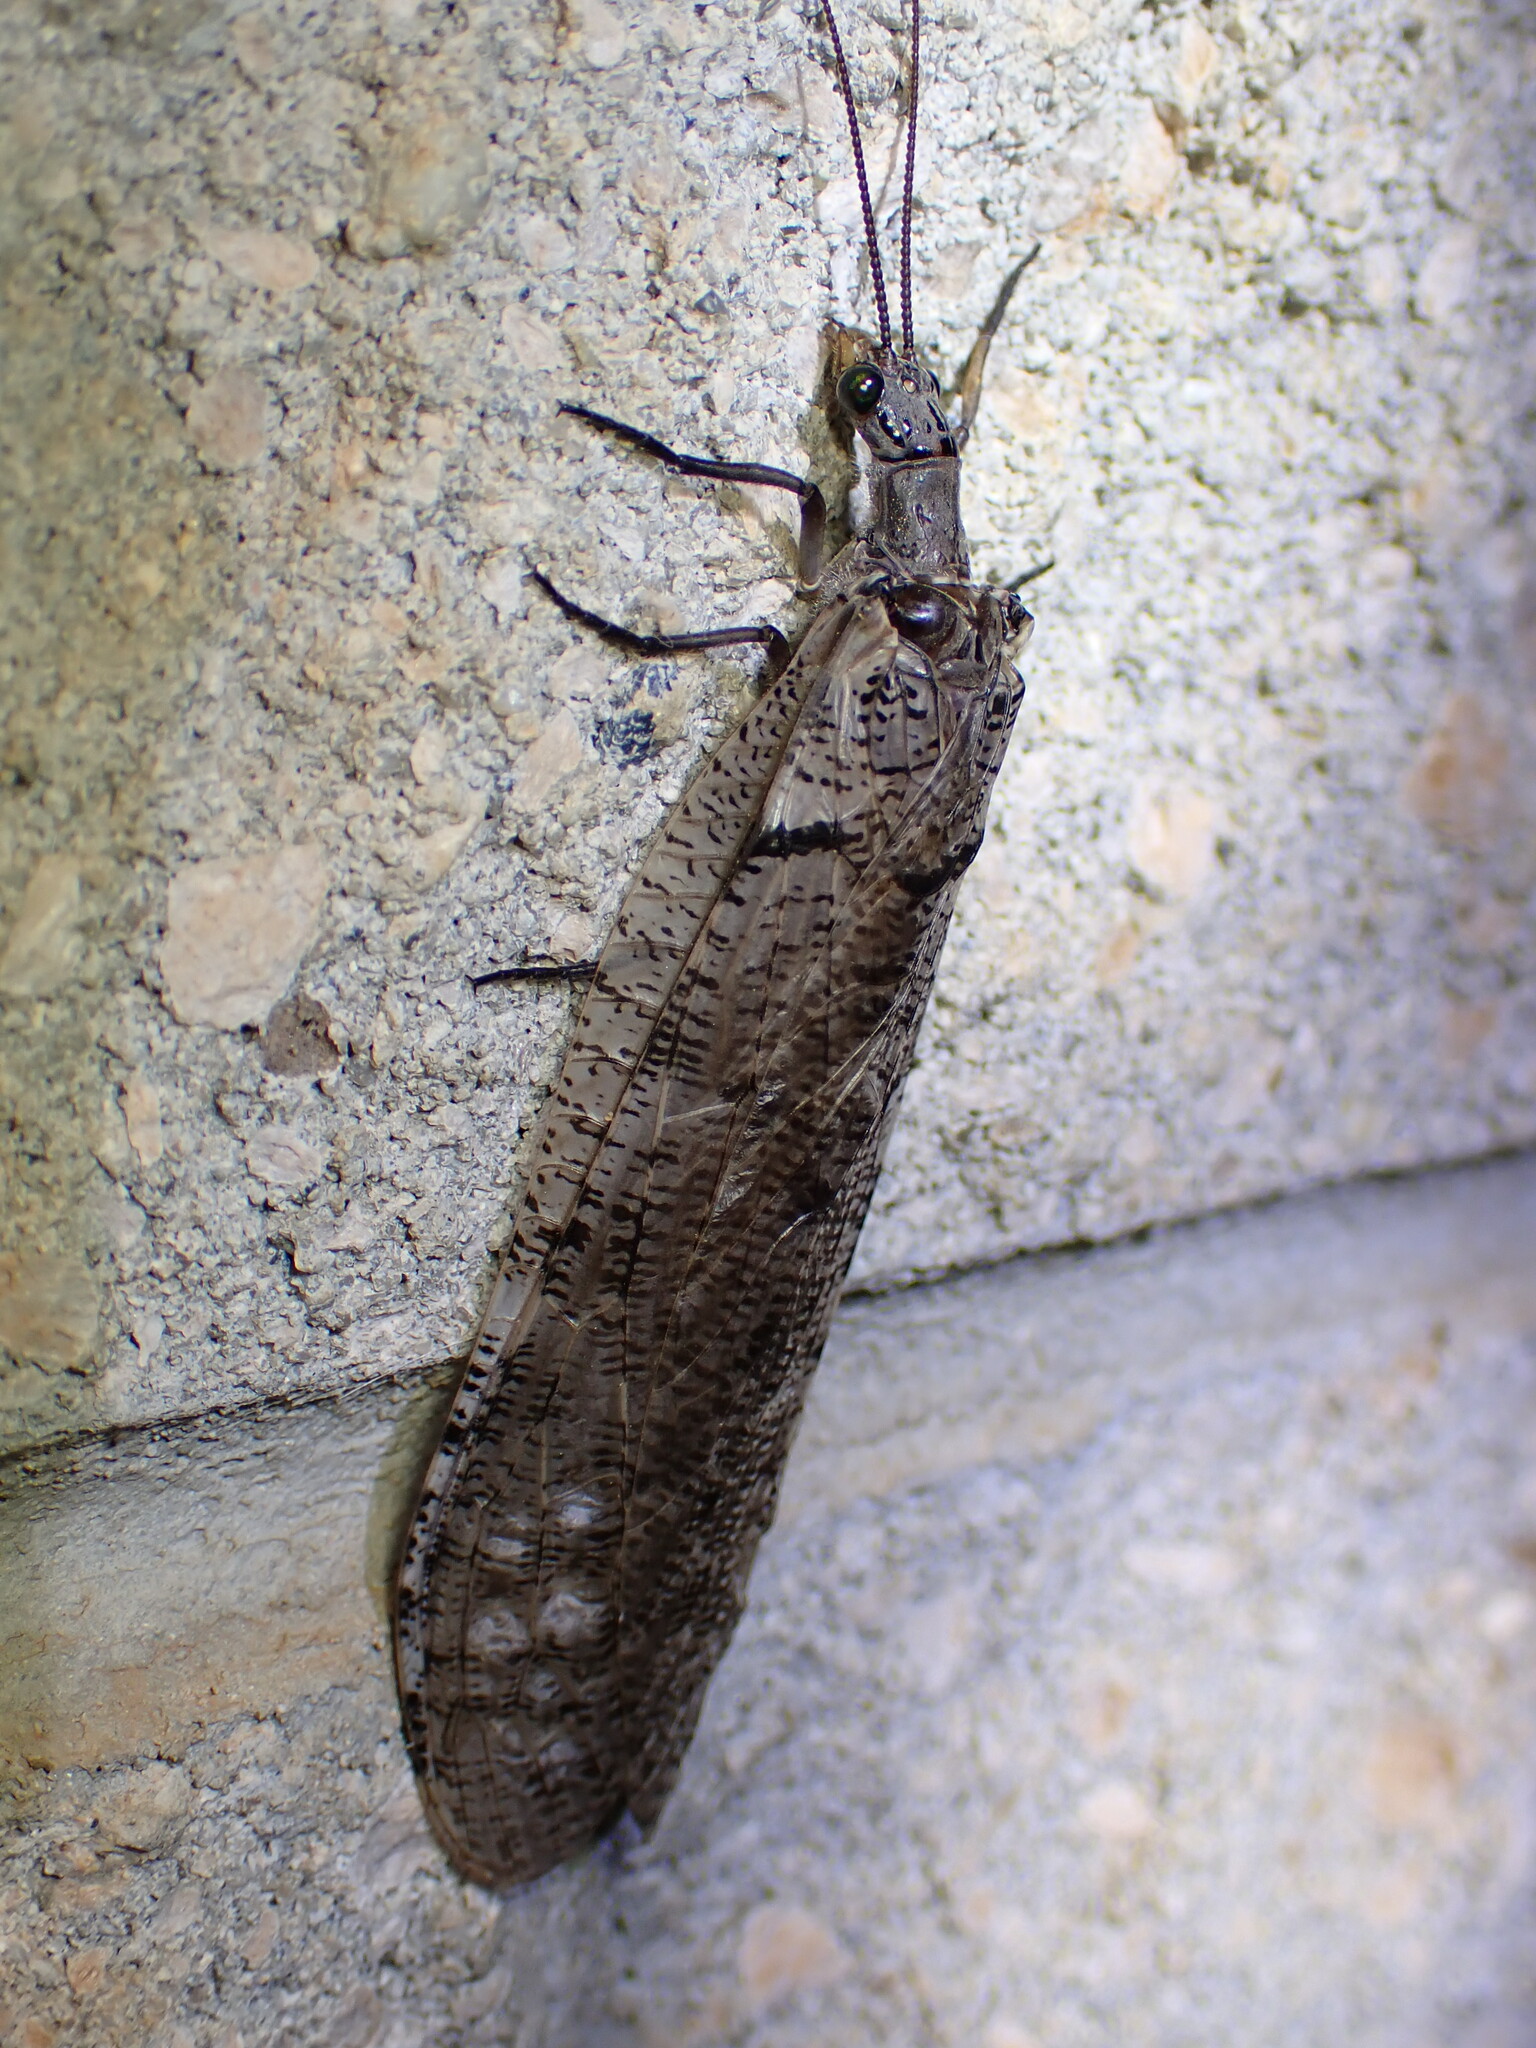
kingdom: Animalia
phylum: Arthropoda
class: Insecta
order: Megaloptera
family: Corydalidae
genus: Neohermes
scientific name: Neohermes filicornis
